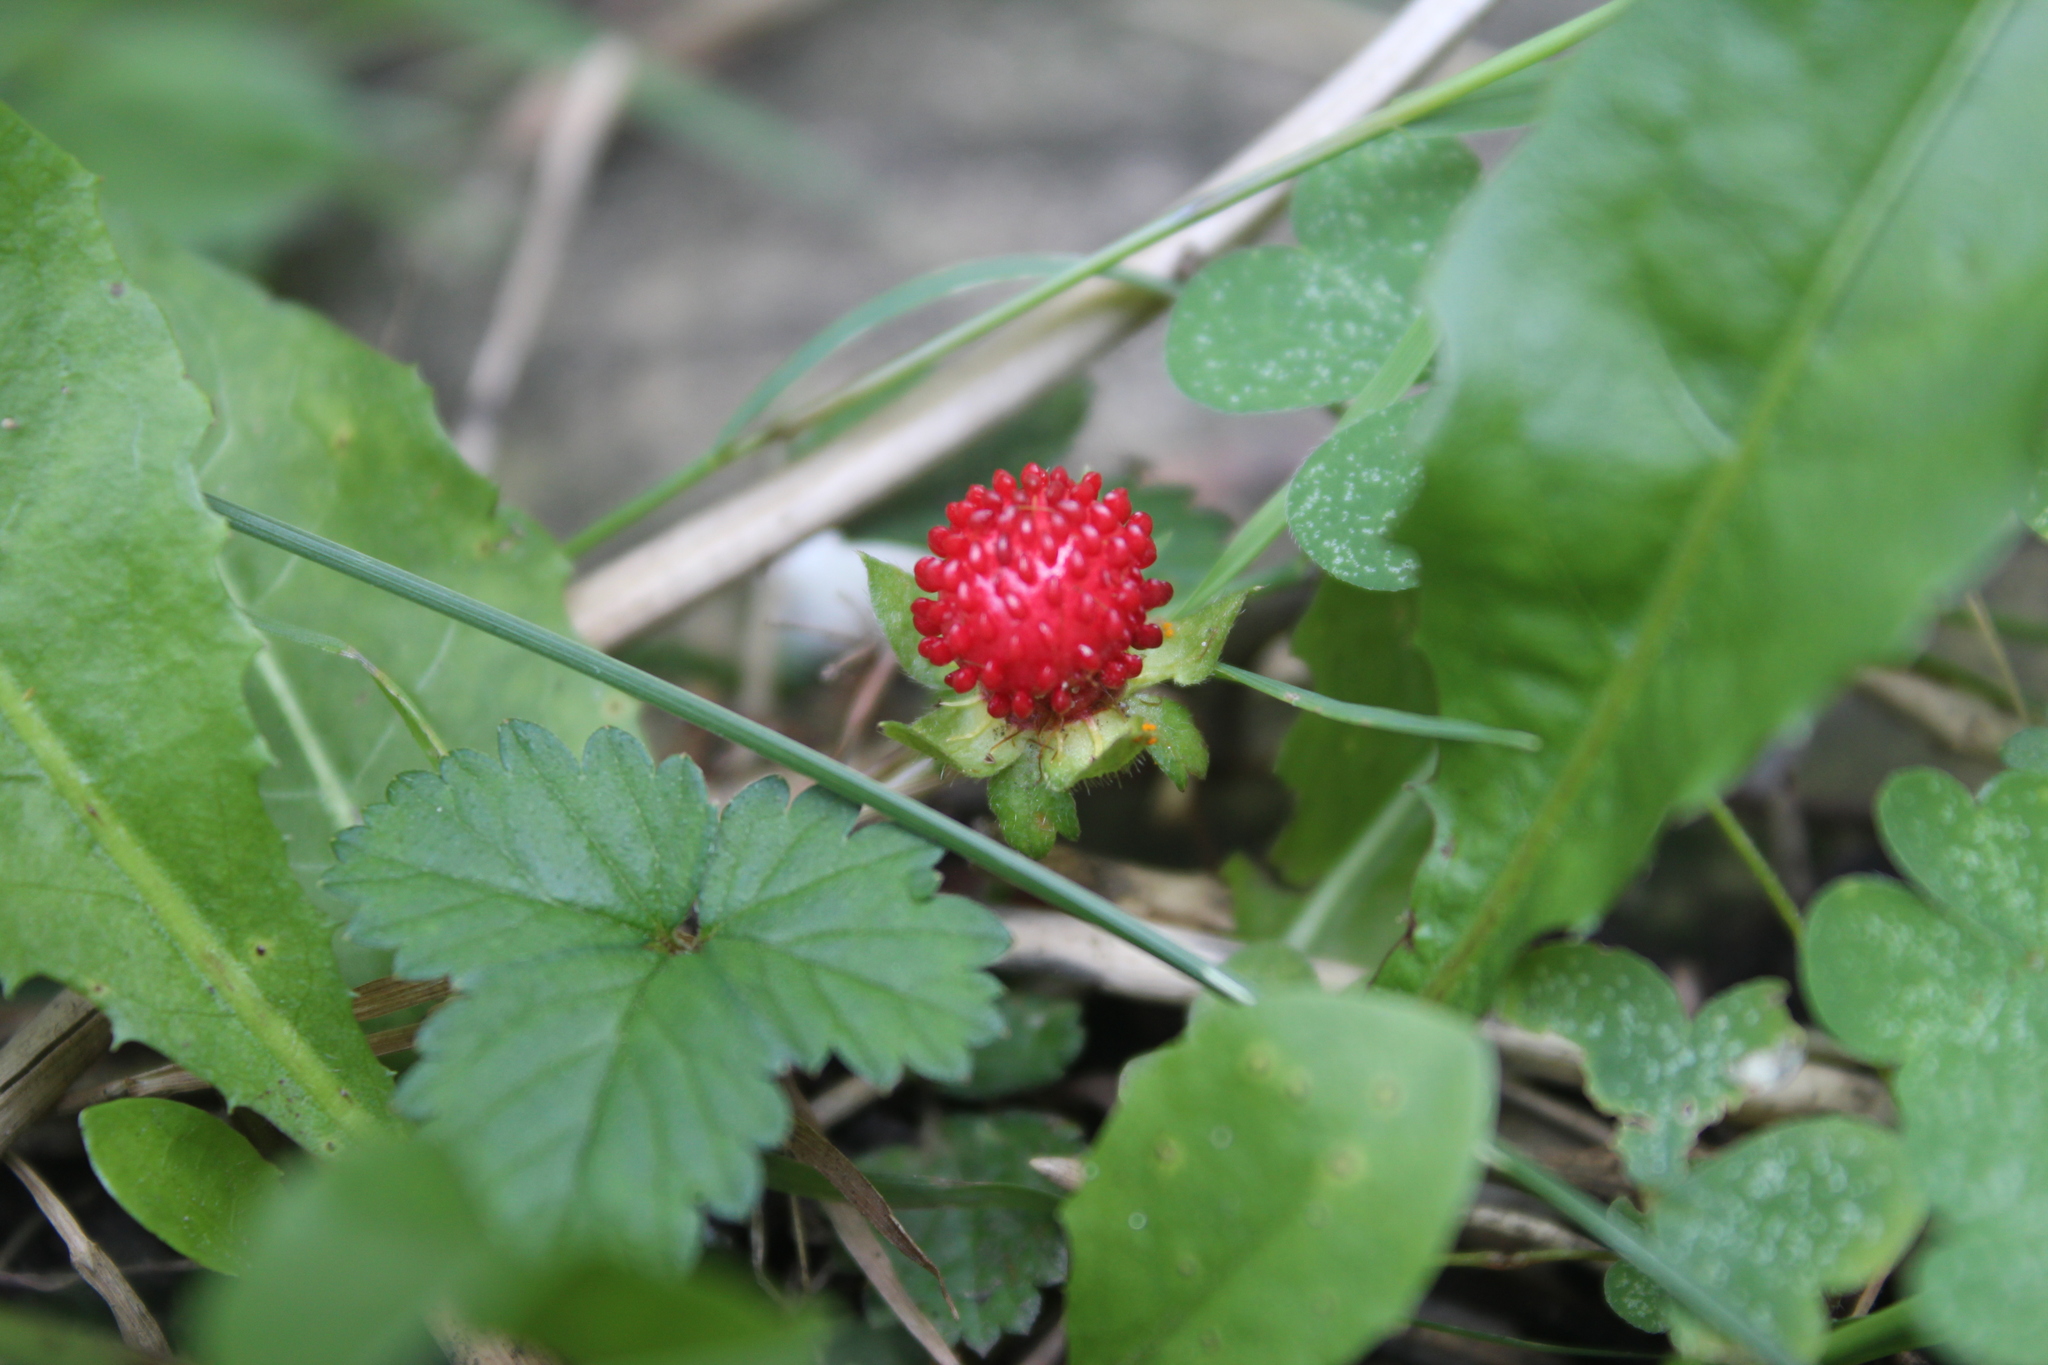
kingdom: Plantae
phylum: Tracheophyta
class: Magnoliopsida
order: Rosales
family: Rosaceae
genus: Potentilla
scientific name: Potentilla indica
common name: Yellow-flowered strawberry
